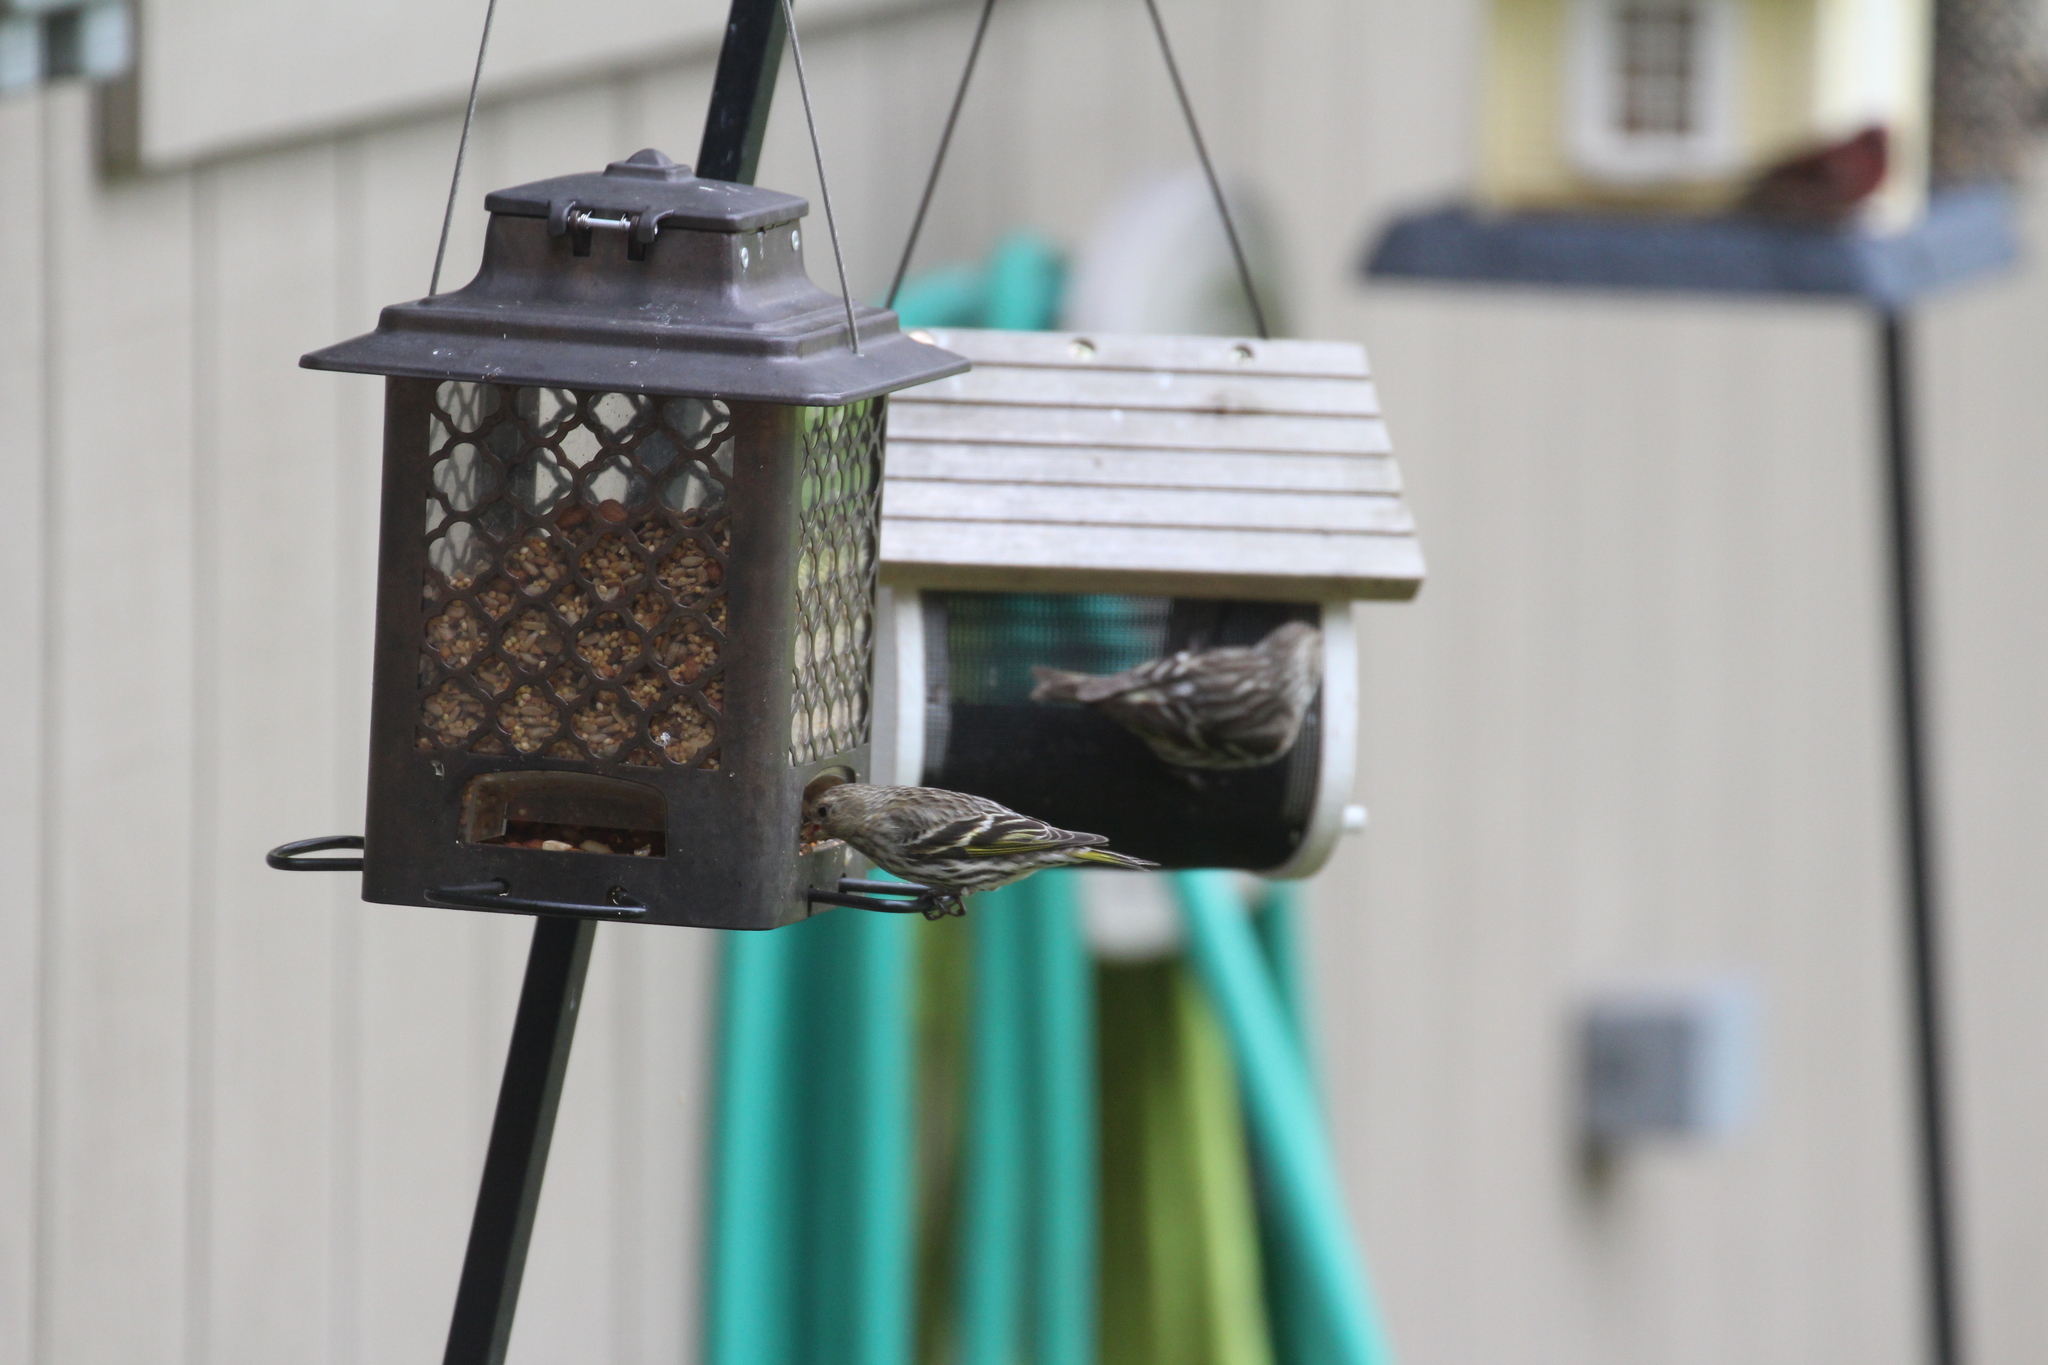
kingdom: Animalia
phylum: Chordata
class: Aves
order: Passeriformes
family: Fringillidae
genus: Spinus
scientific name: Spinus pinus
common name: Pine siskin
